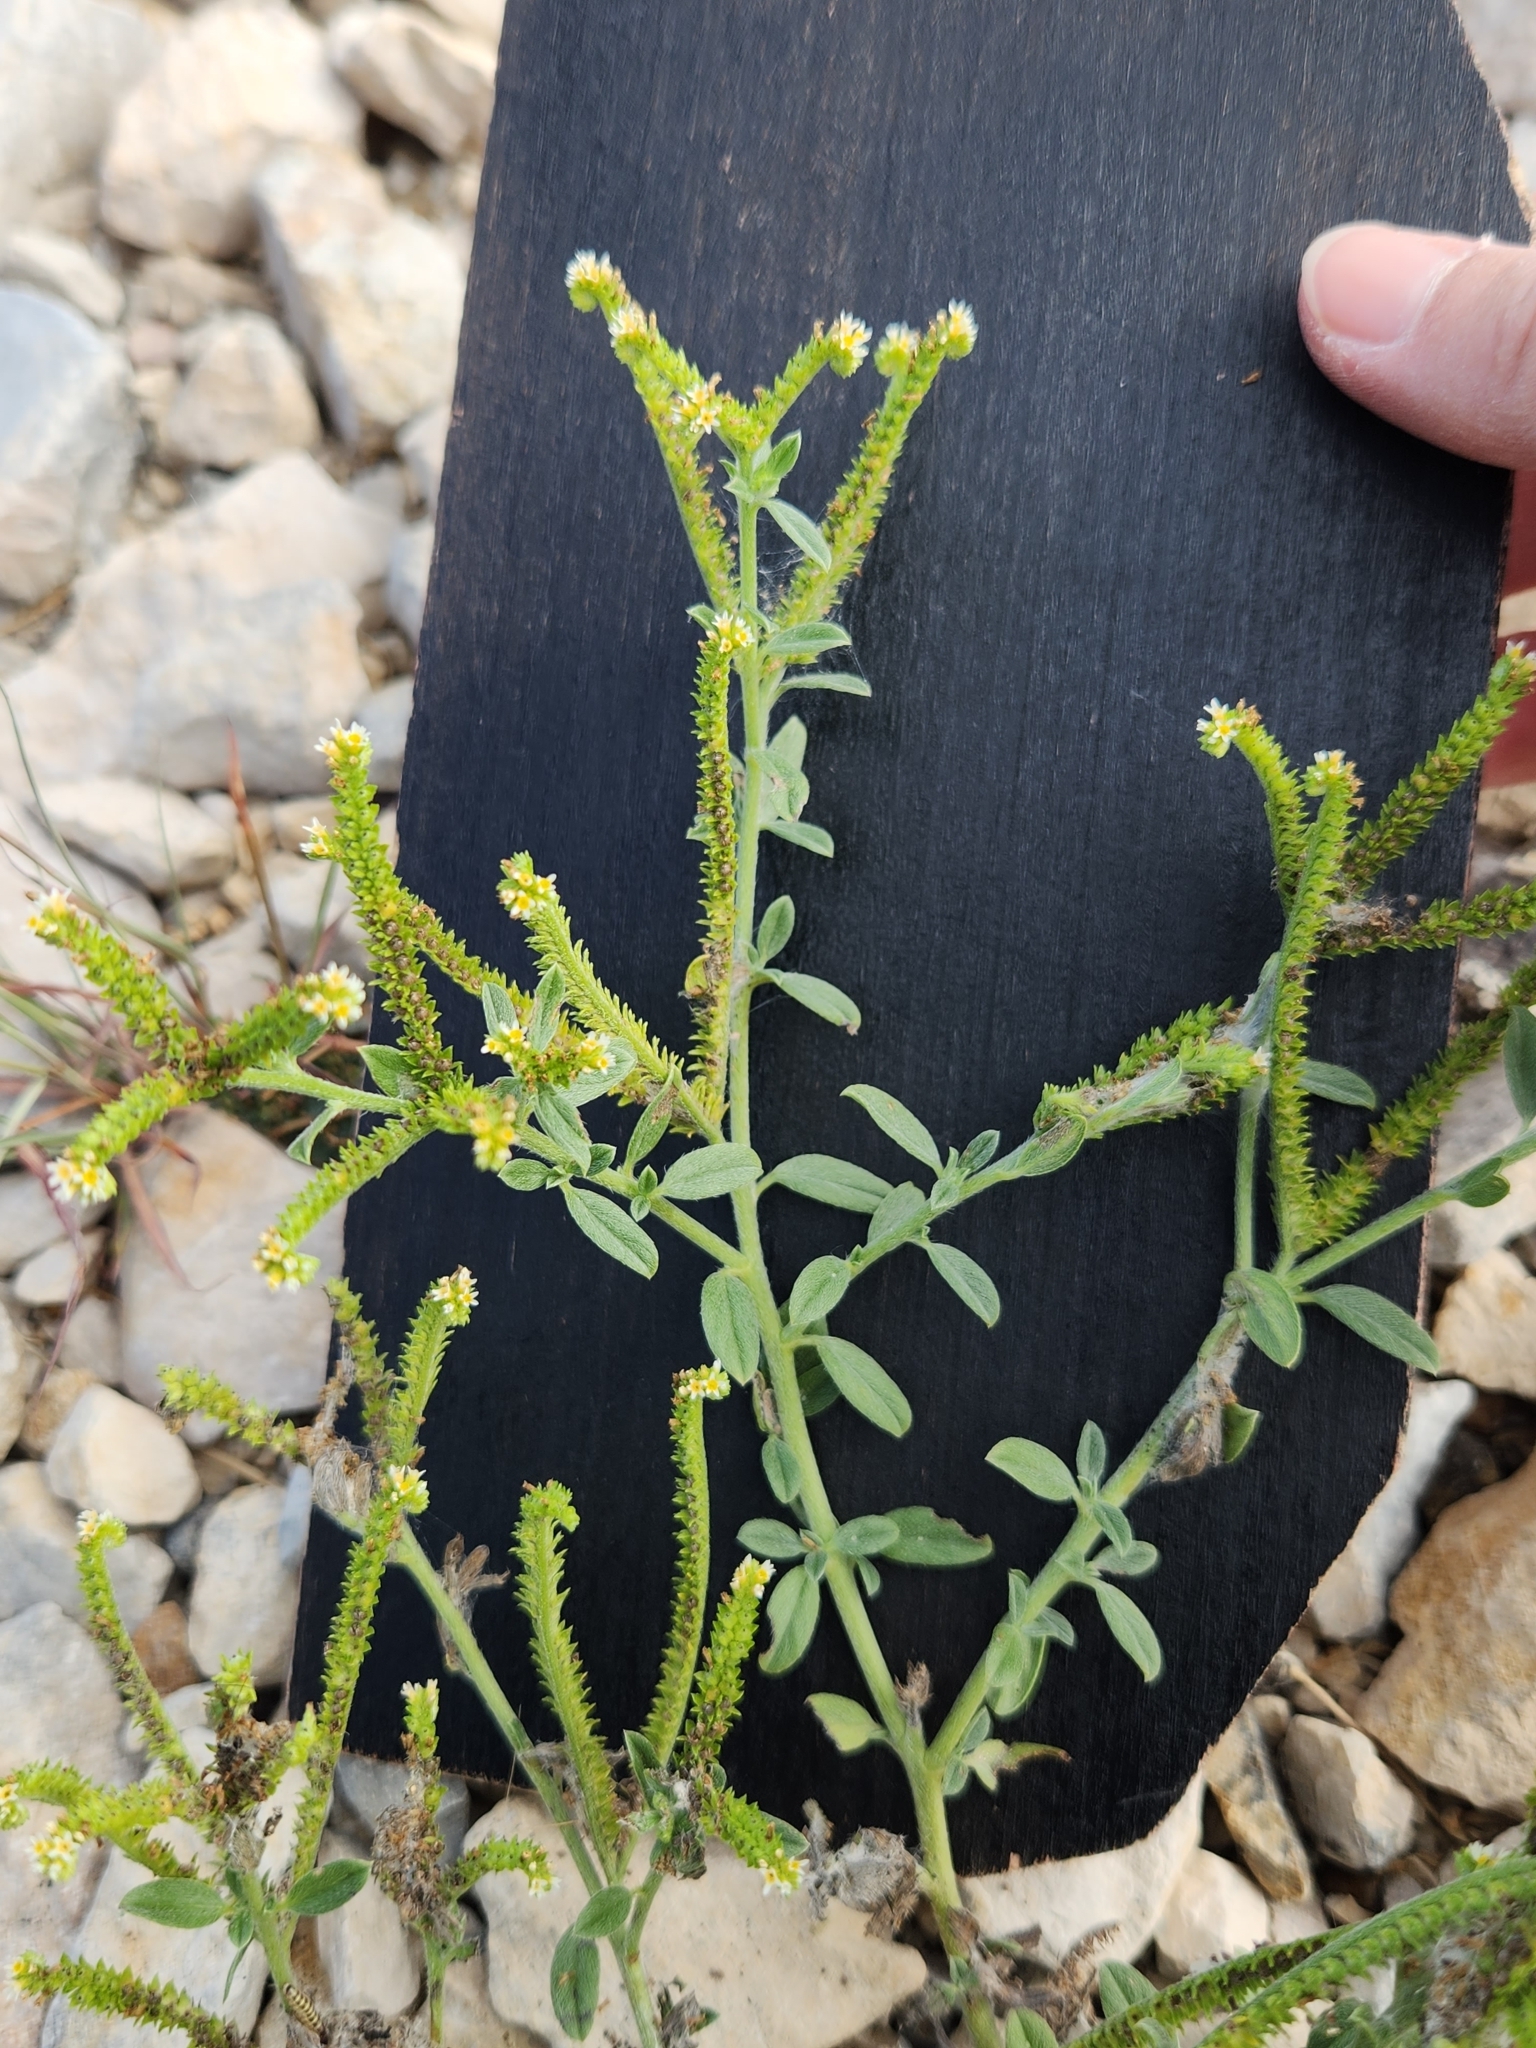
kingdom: Plantae
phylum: Tracheophyta
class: Magnoliopsida
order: Boraginales
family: Heliotropiaceae
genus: Euploca
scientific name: Euploca procumbens
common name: Fourspike heliotrope
